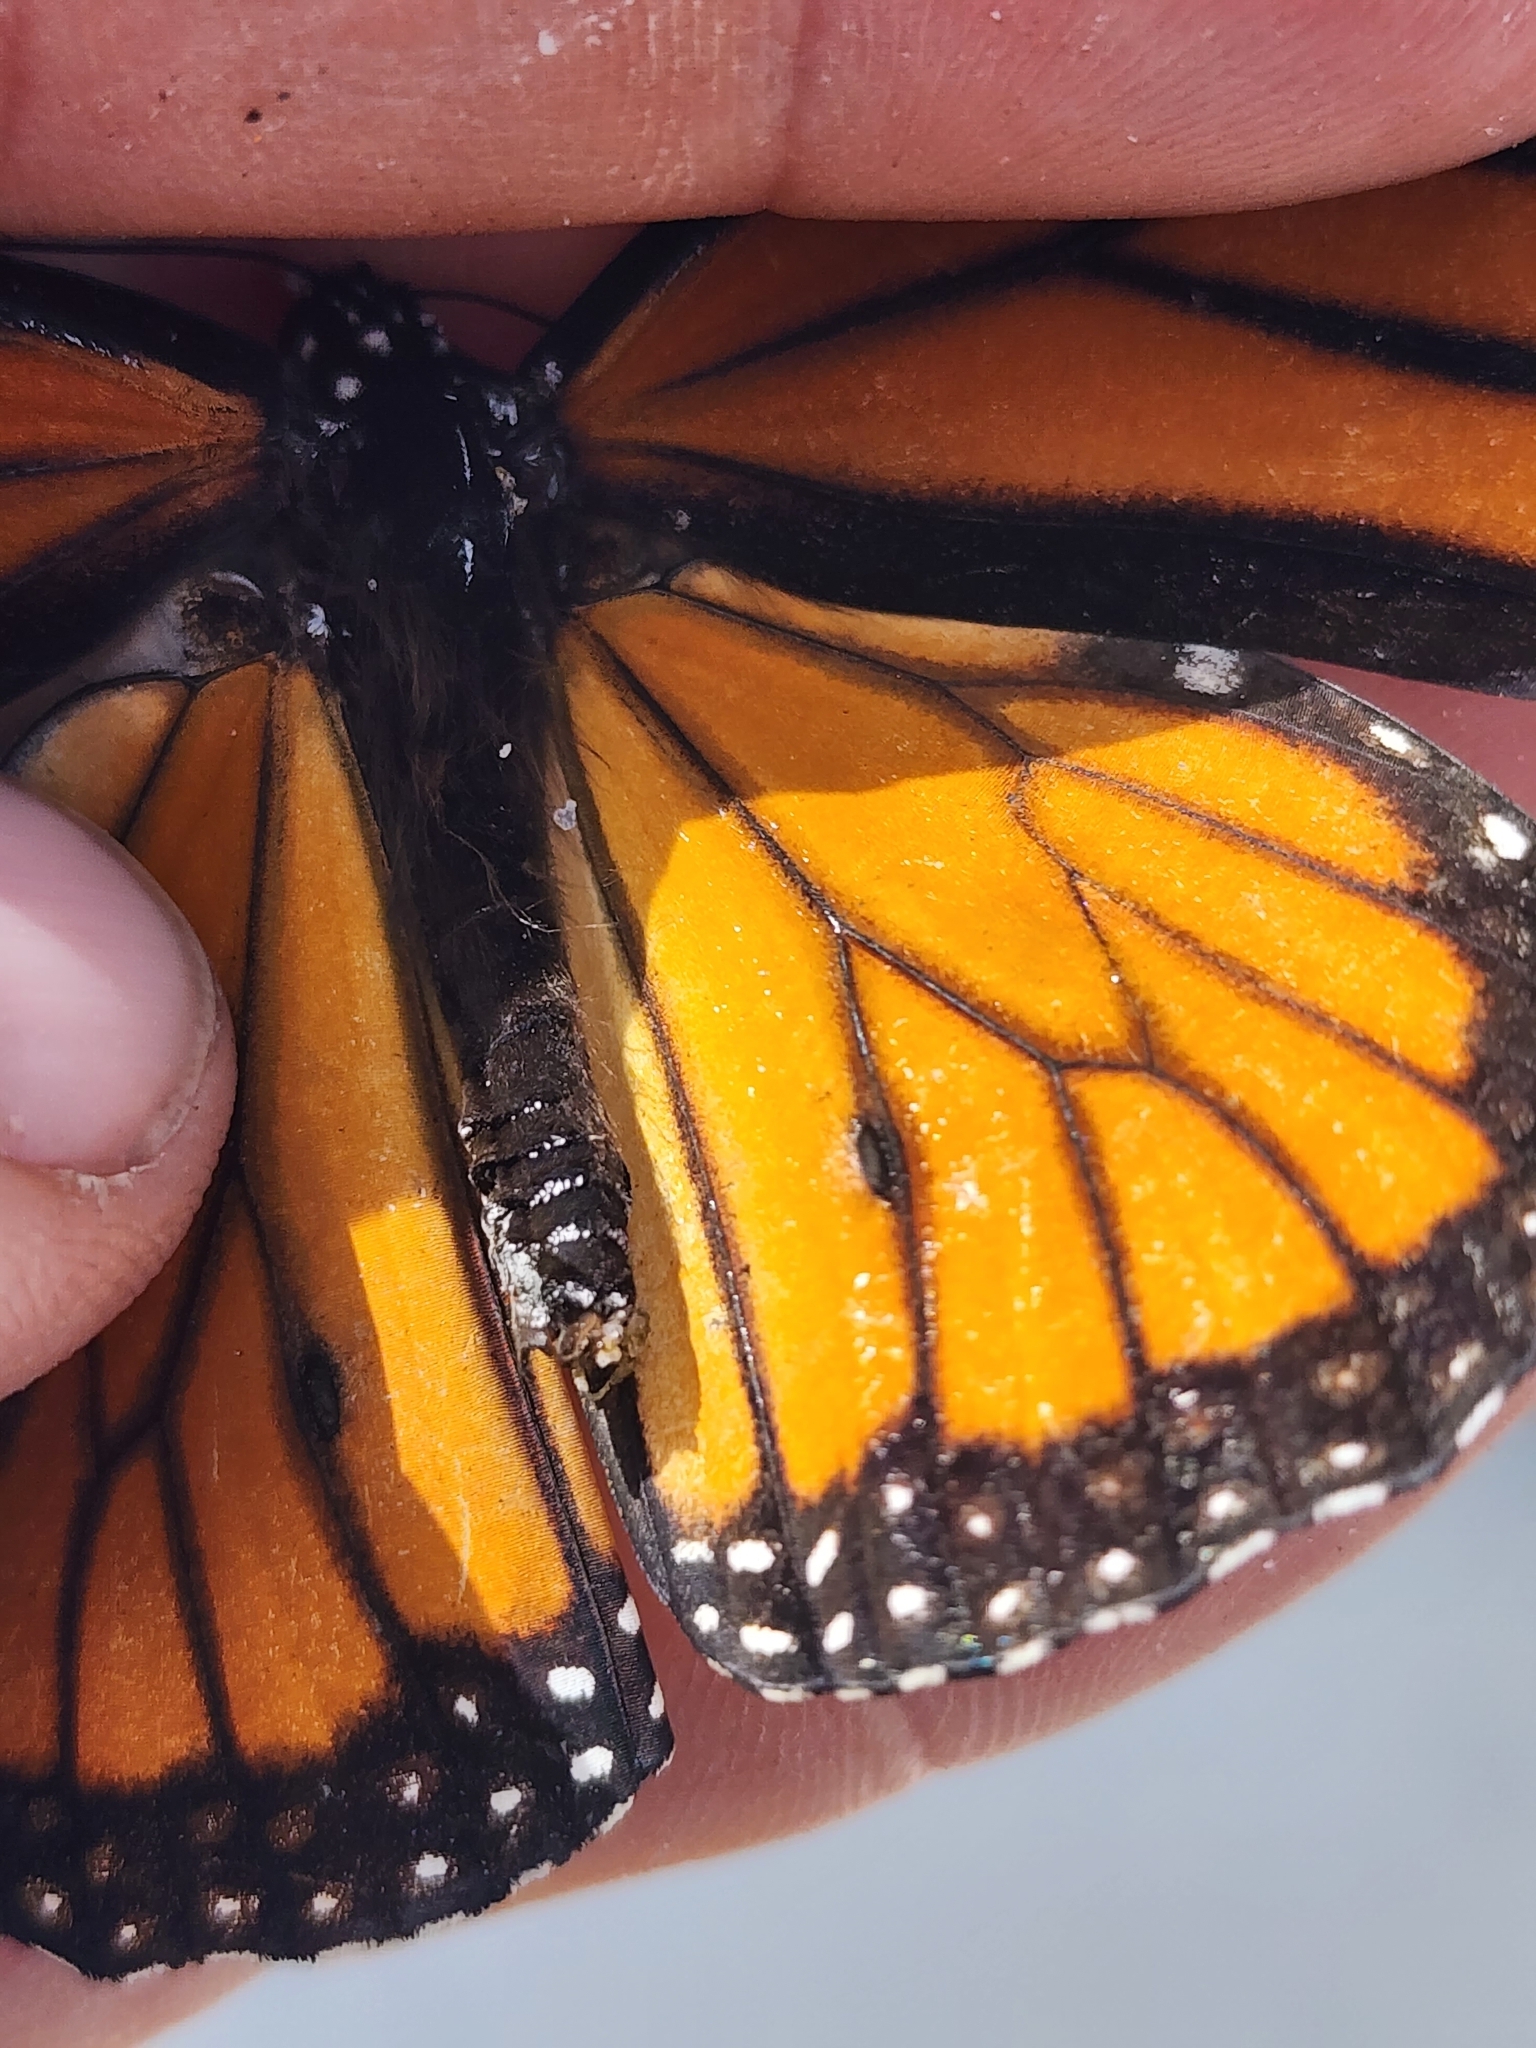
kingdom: Animalia
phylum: Arthropoda
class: Insecta
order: Lepidoptera
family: Nymphalidae
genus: Danaus
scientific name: Danaus plexippus
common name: Monarch
